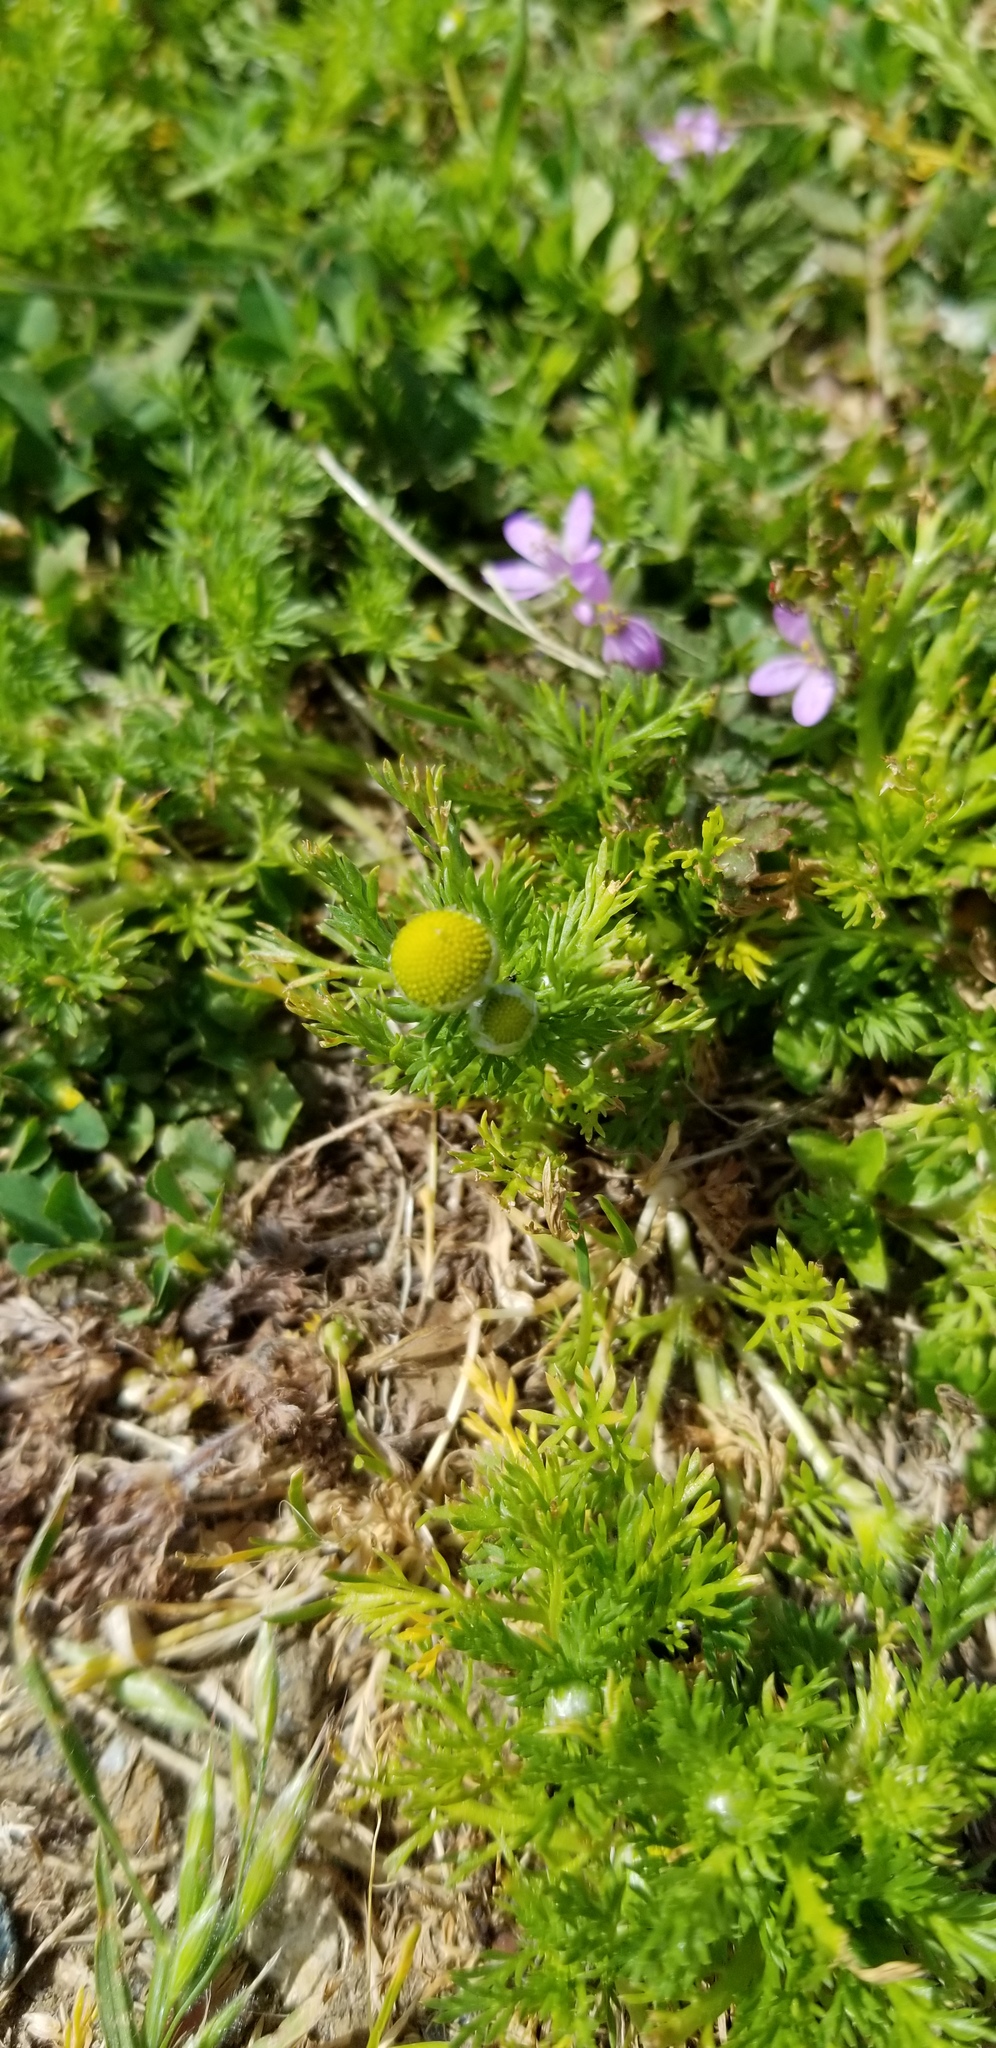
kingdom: Plantae
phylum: Tracheophyta
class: Magnoliopsida
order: Asterales
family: Asteraceae
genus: Matricaria
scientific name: Matricaria discoidea
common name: Disc mayweed
